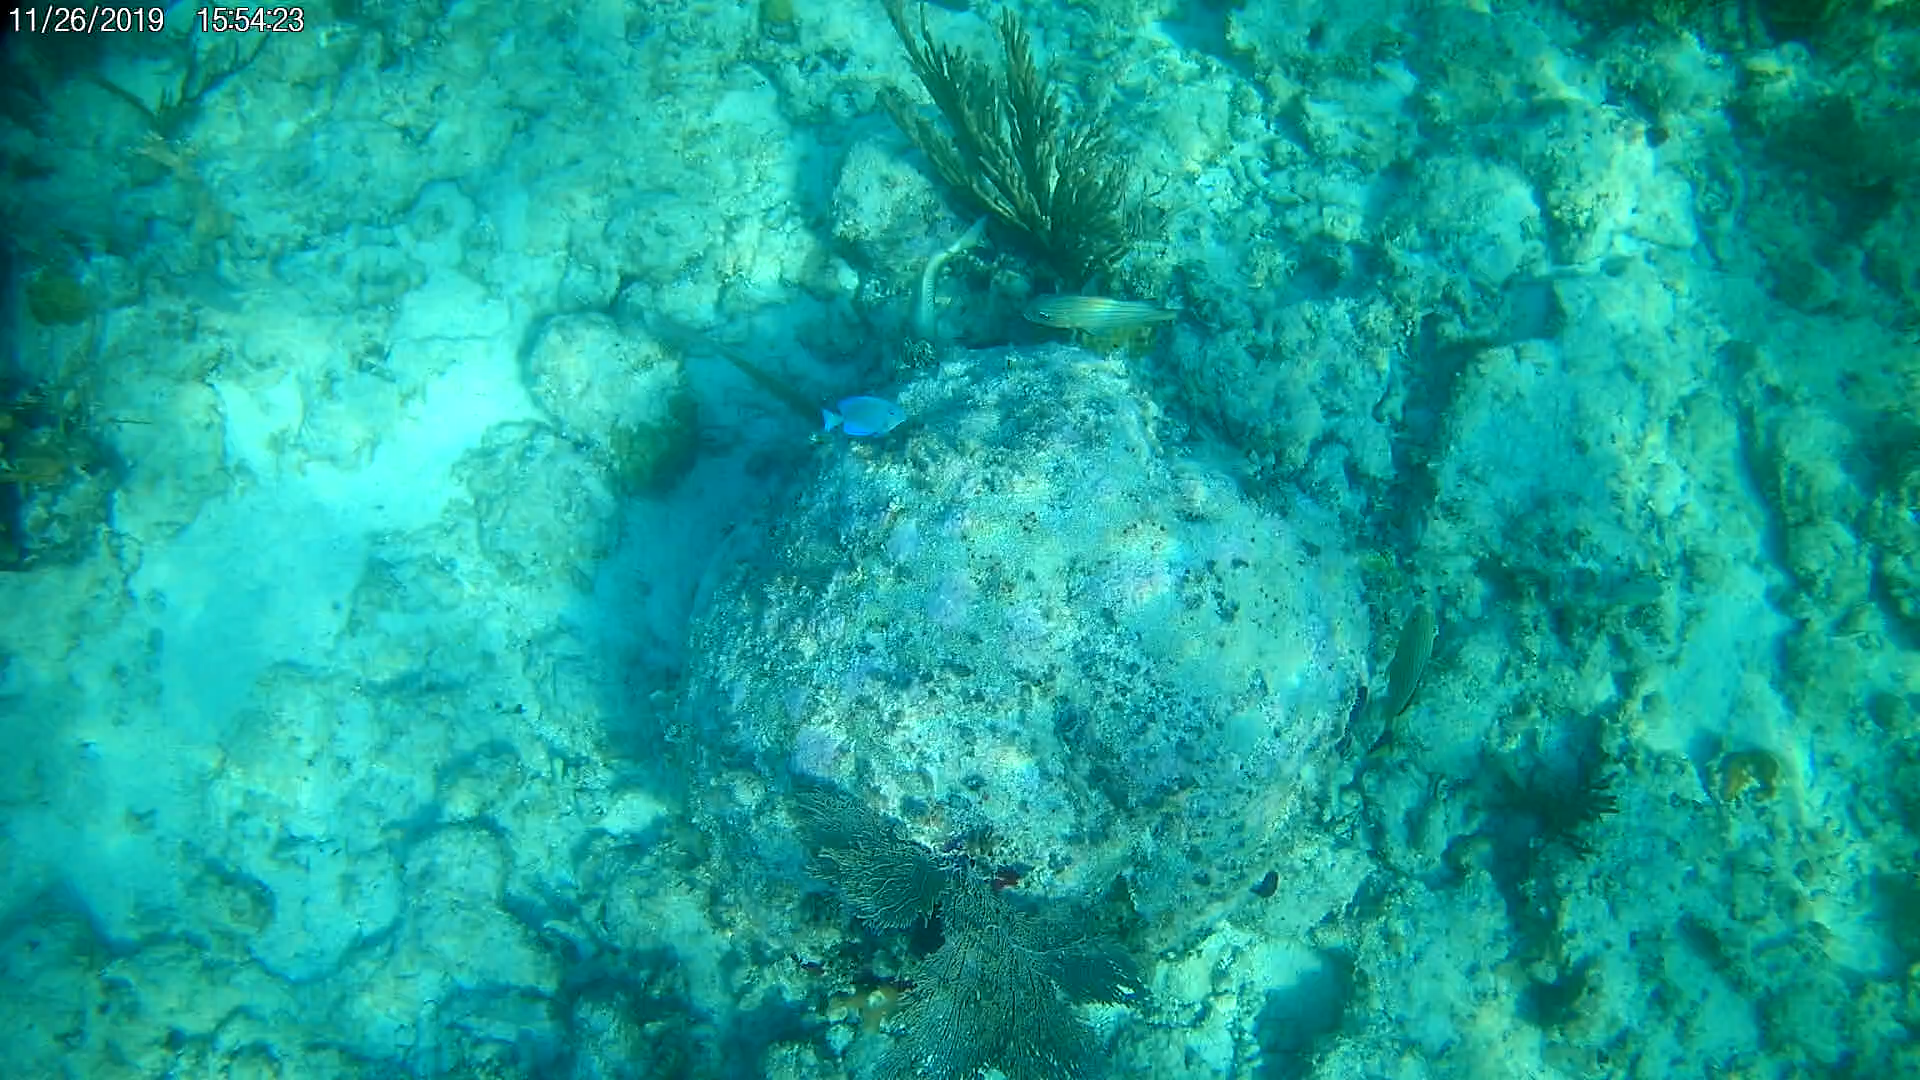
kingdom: Animalia
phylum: Chordata
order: Perciformes
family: Acanthuridae
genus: Acanthurus
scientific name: Acanthurus coeruleus
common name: Blue tang
